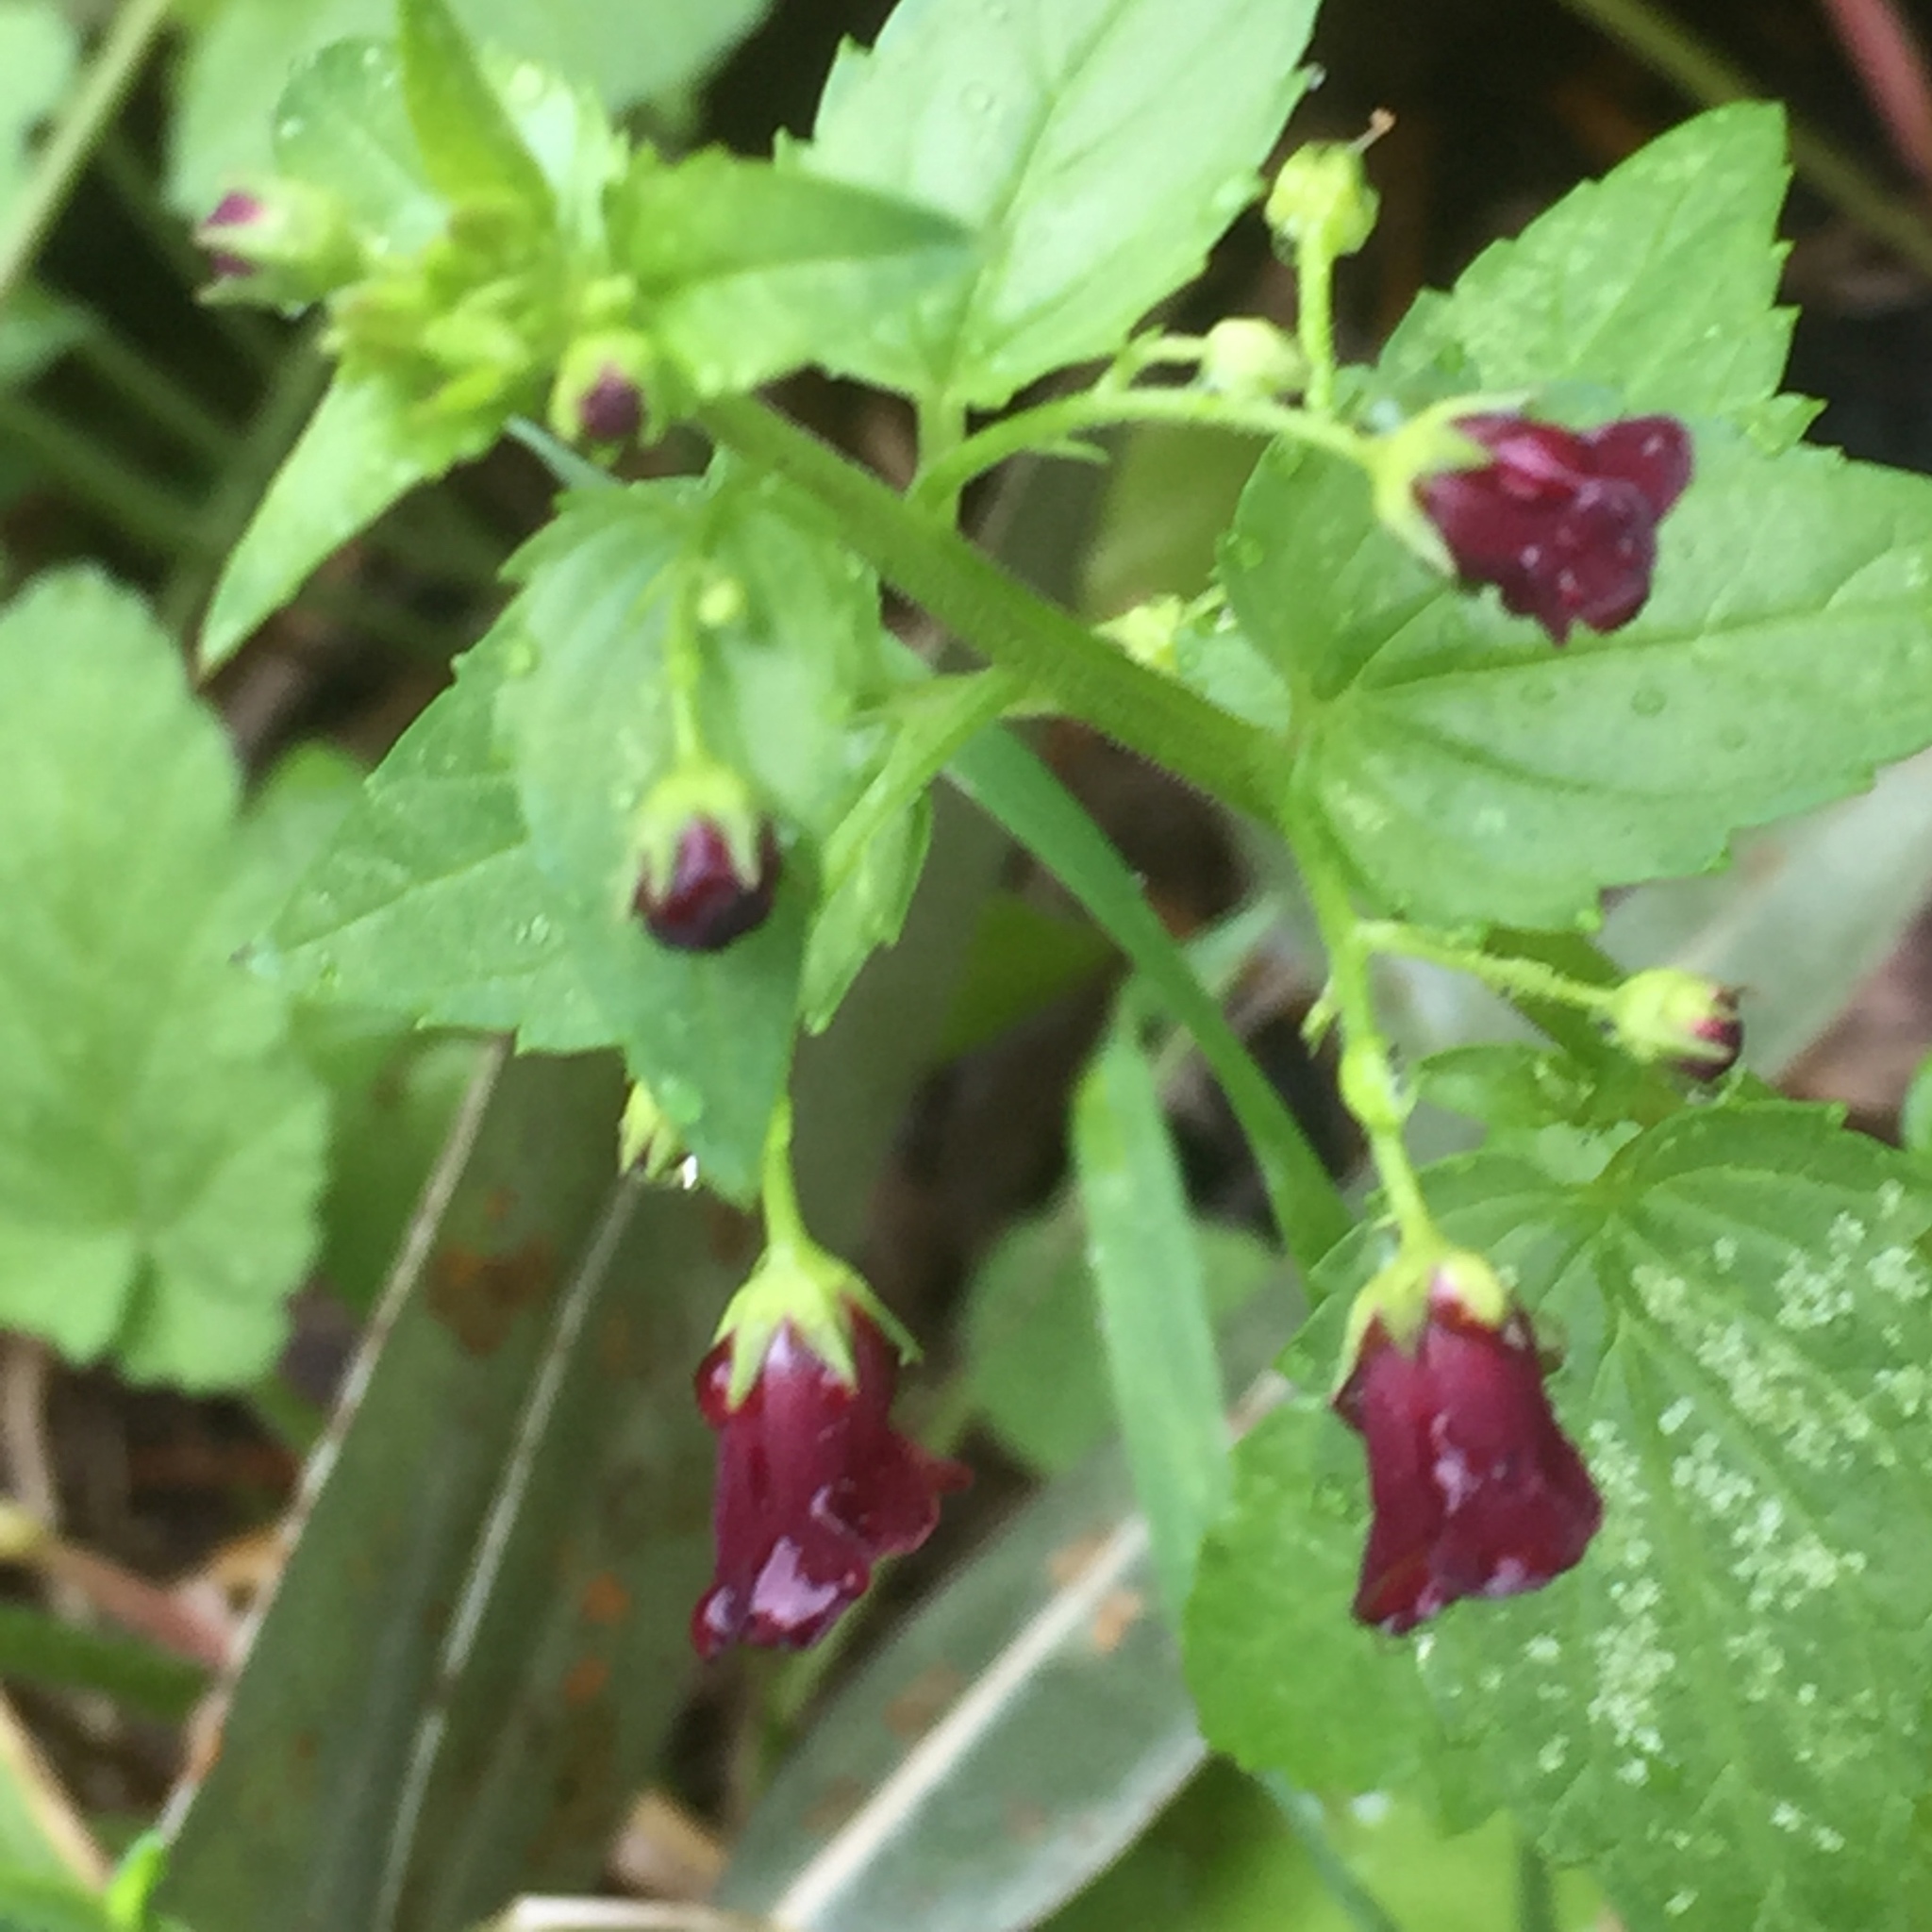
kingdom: Plantae
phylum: Tracheophyta
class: Magnoliopsida
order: Lamiales
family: Scrophulariaceae
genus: Scrophularia
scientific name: Scrophularia peregrina
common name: Mediterranean figwort
